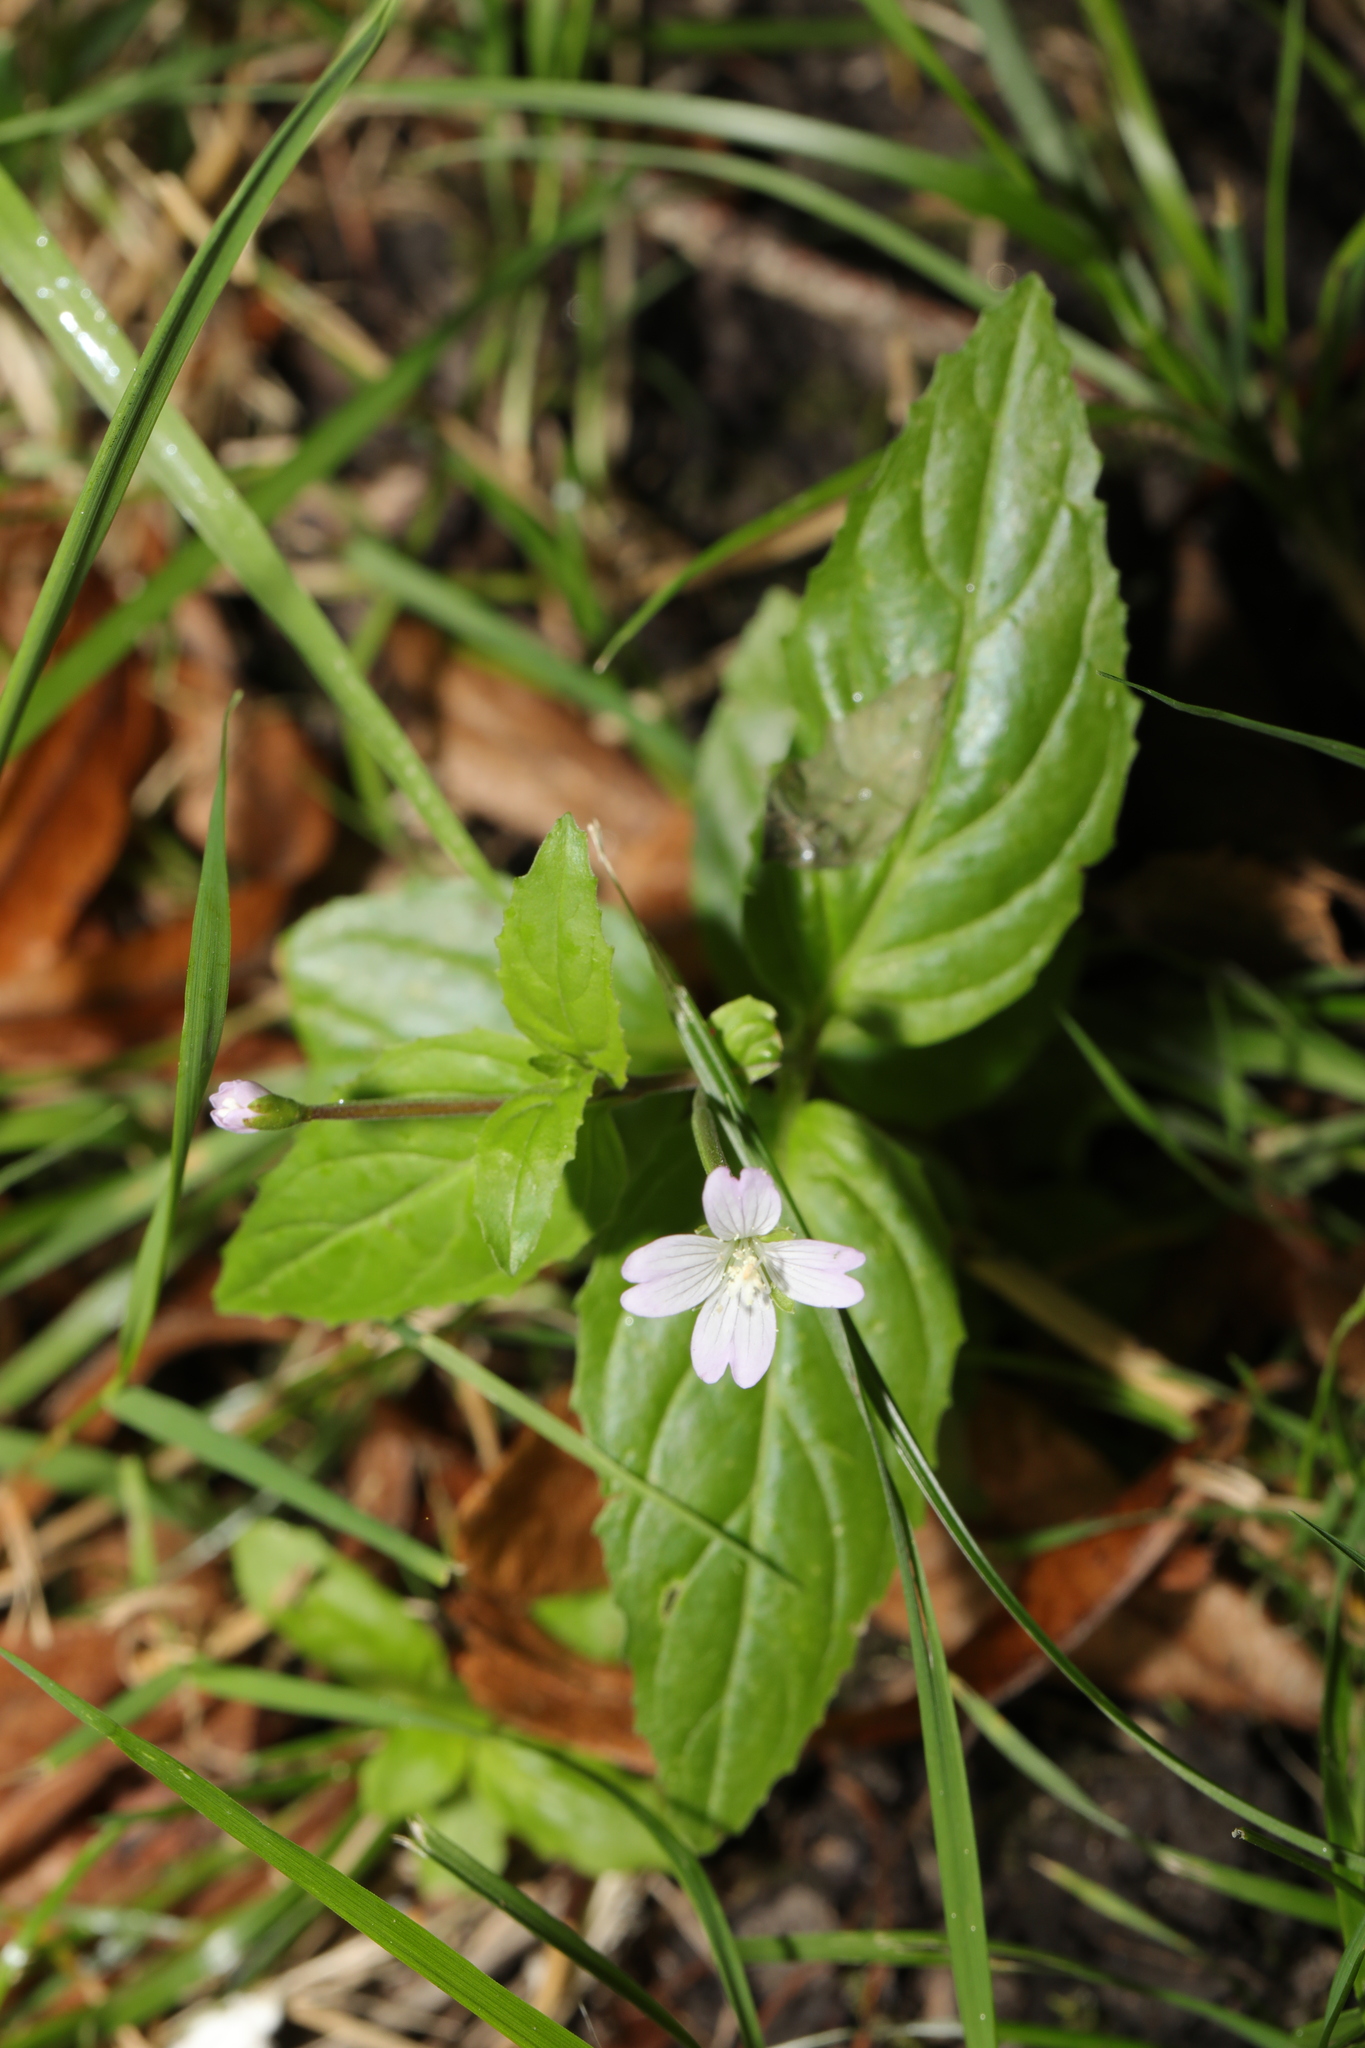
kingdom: Plantae
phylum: Tracheophyta
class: Magnoliopsida
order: Myrtales
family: Onagraceae
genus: Epilobium
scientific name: Epilobium montanum
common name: Broad-leaved willowherb
